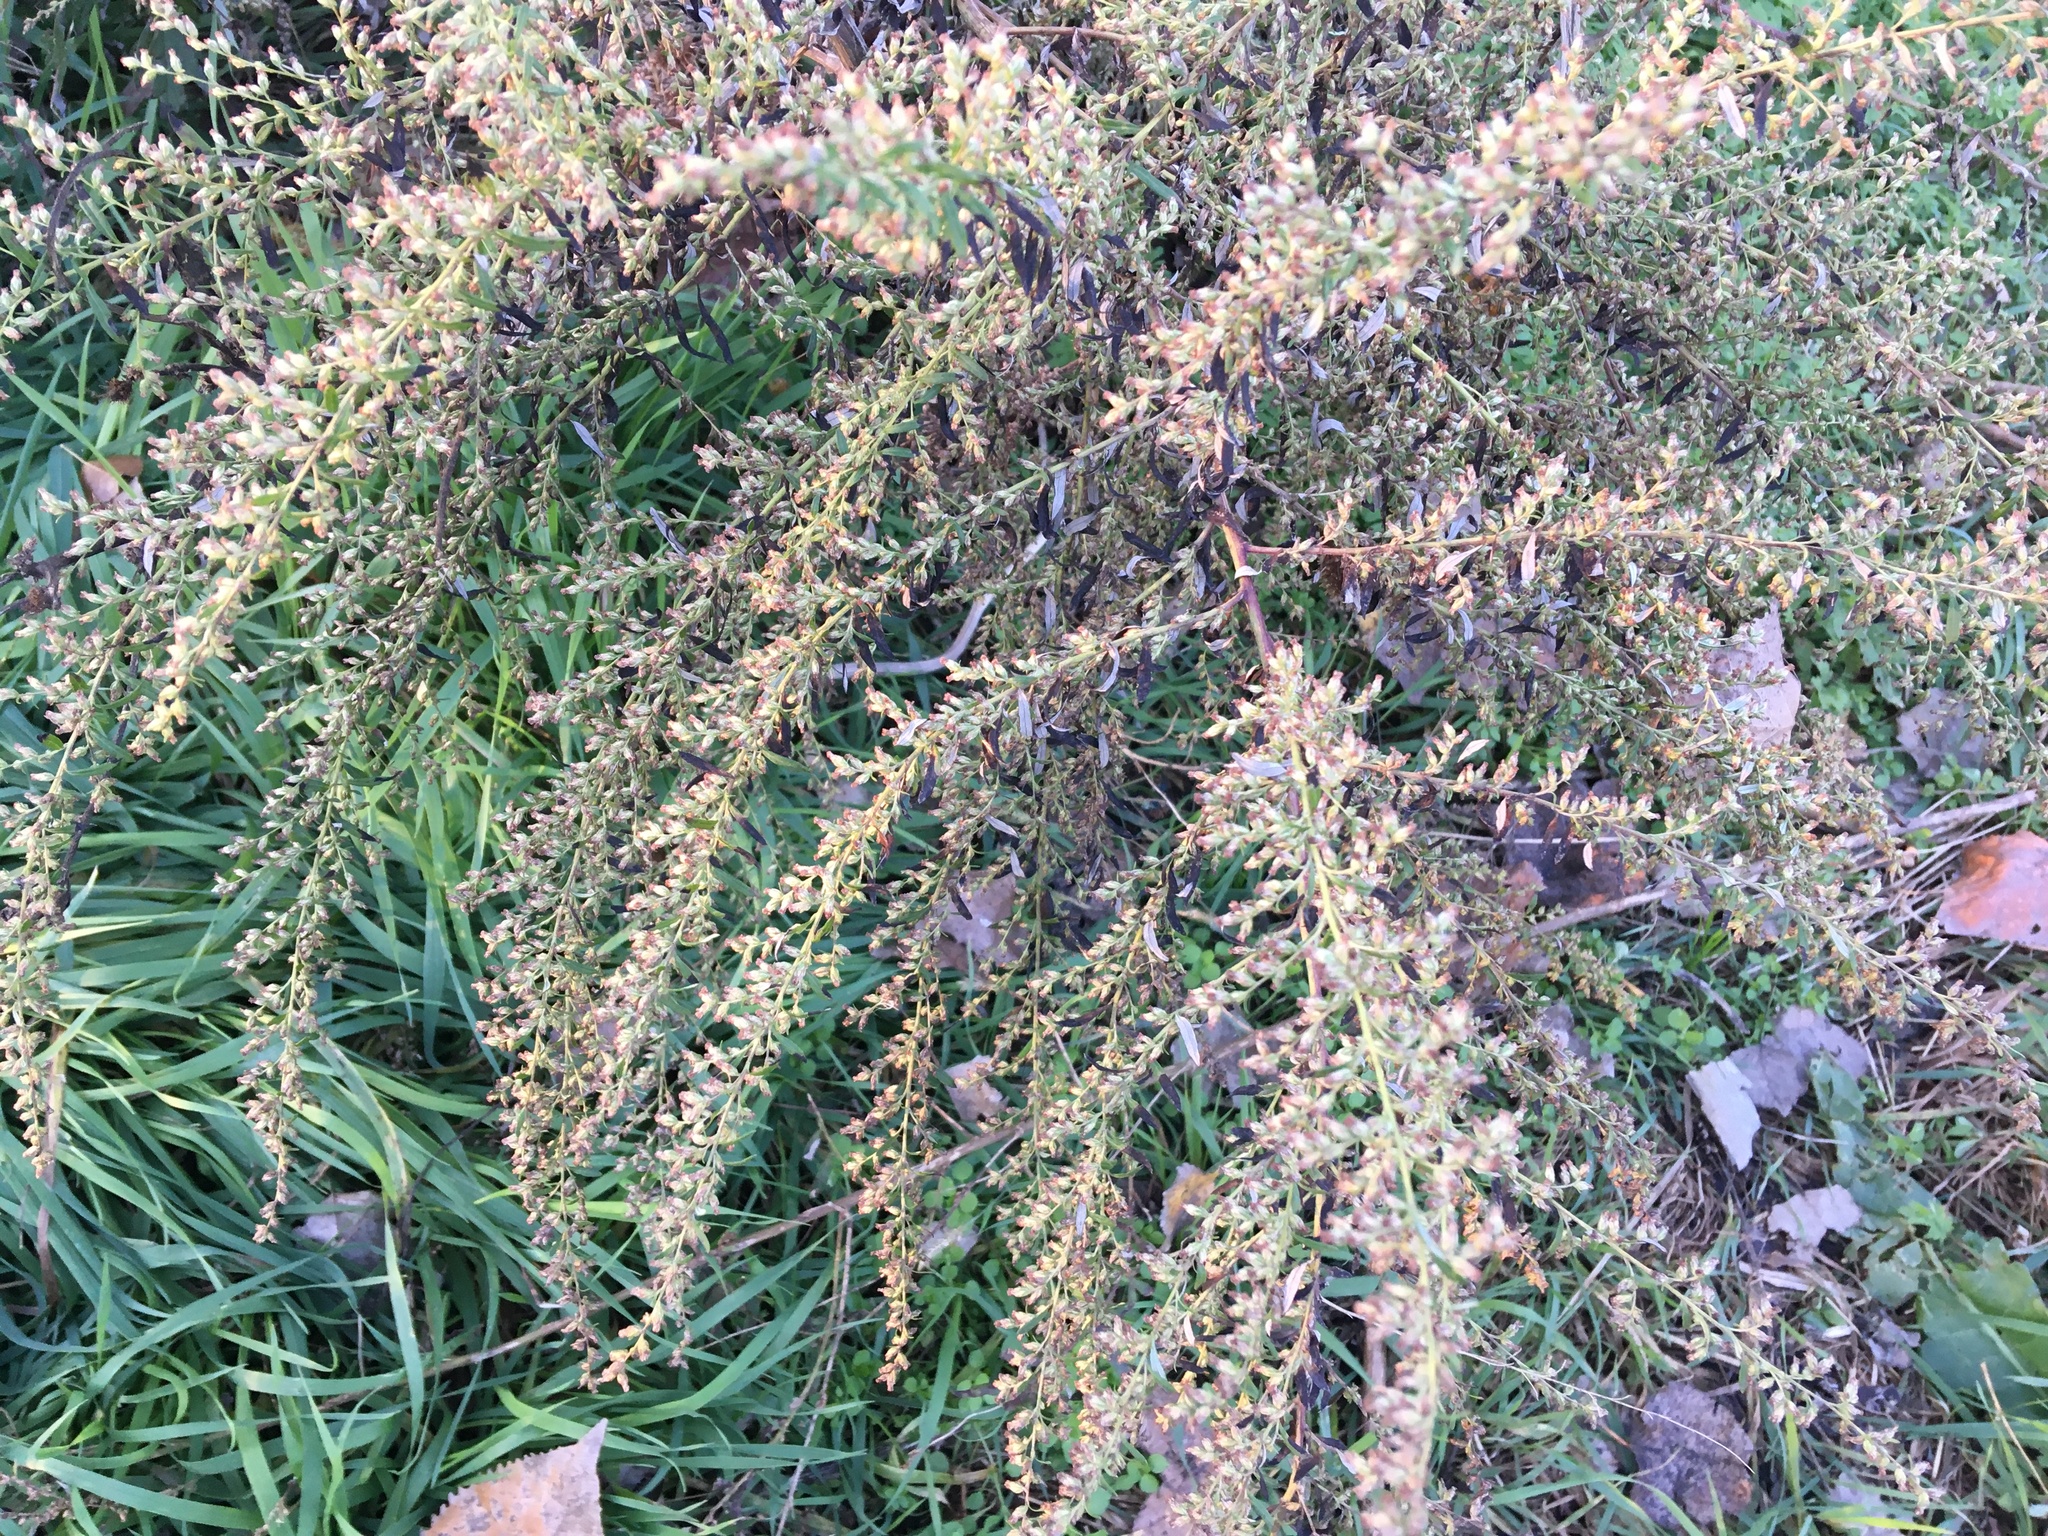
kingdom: Plantae
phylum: Tracheophyta
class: Magnoliopsida
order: Asterales
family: Asteraceae
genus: Artemisia
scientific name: Artemisia vulgaris
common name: Mugwort
